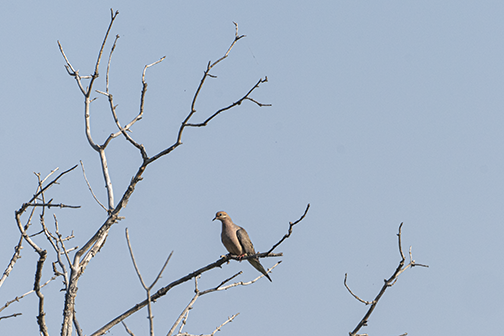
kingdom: Animalia
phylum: Chordata
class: Aves
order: Columbiformes
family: Columbidae
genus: Zenaida
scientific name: Zenaida macroura
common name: Mourning dove
